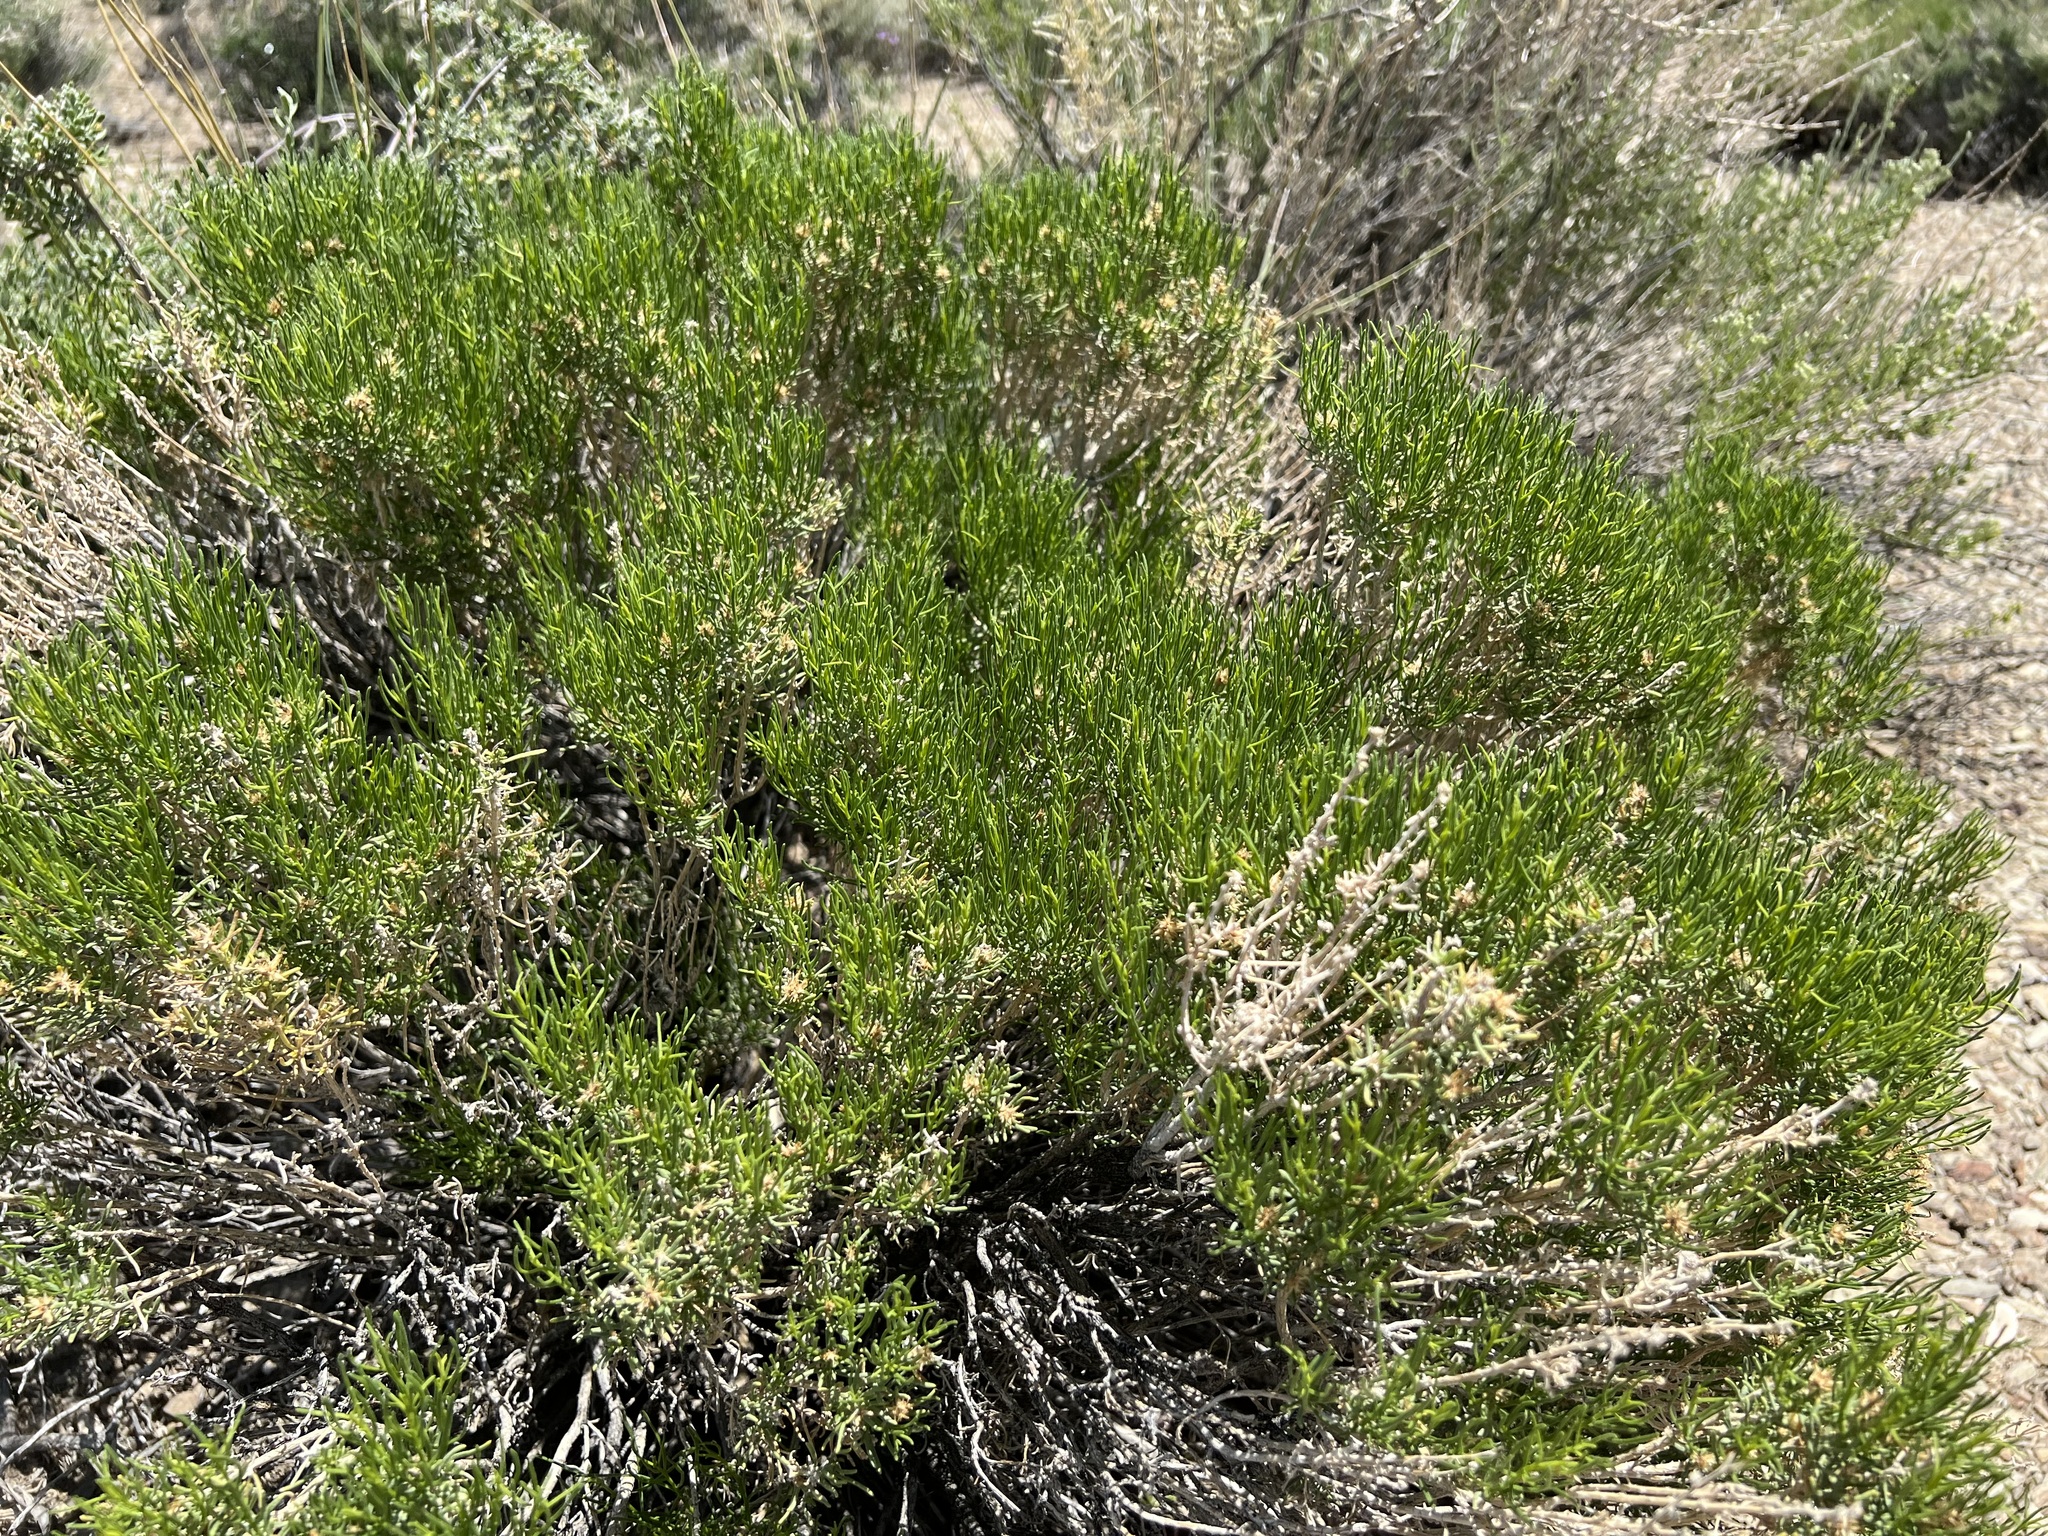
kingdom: Plantae
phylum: Tracheophyta
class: Magnoliopsida
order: Asterales
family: Asteraceae
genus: Ericameria
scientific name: Ericameria teretifolia
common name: Round-leaf rabbitbrush
